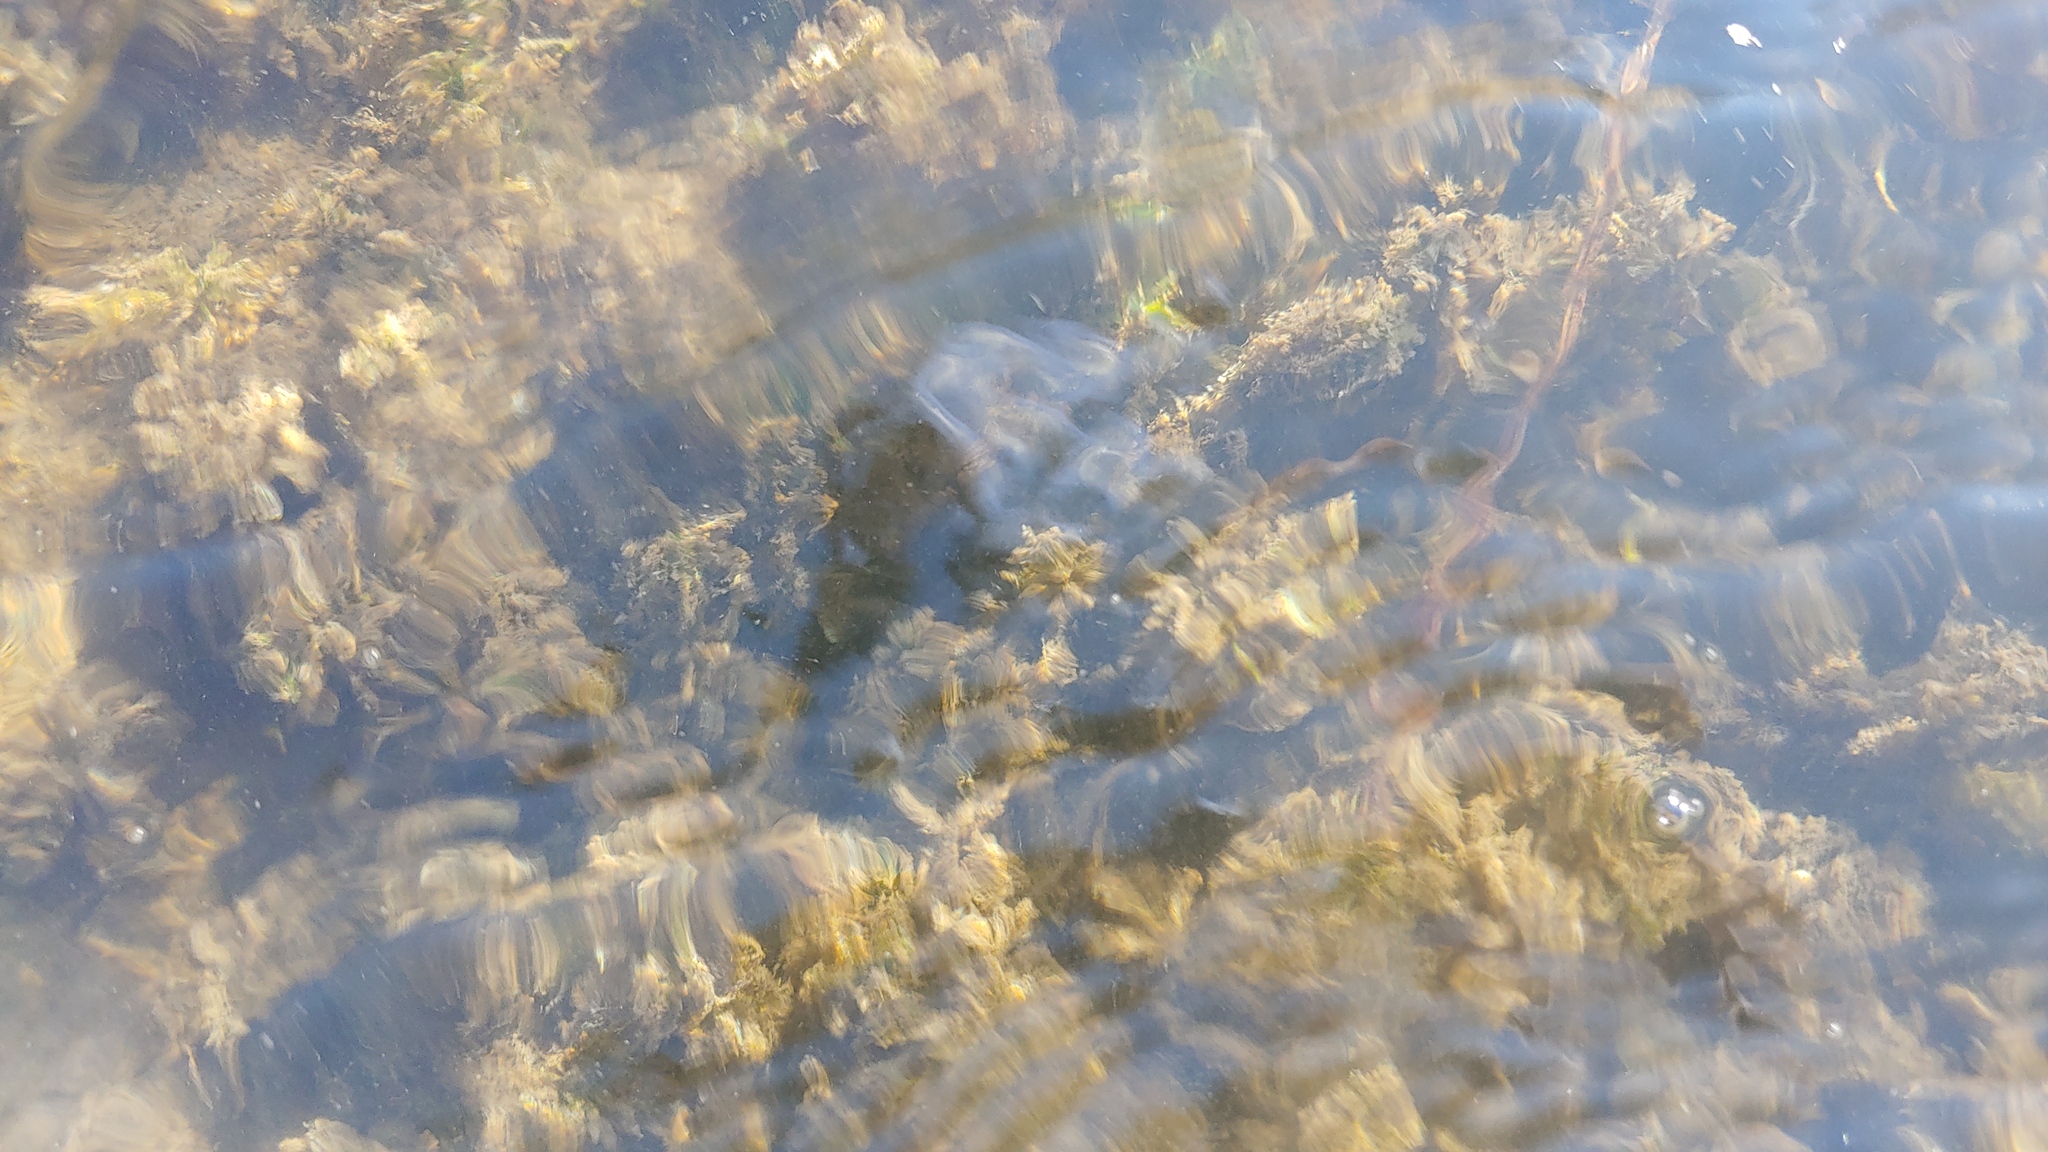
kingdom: Plantae
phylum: Tracheophyta
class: Liliopsida
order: Alismatales
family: Hydrocharitaceae
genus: Elodea
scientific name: Elodea nuttallii
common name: Nuttall's waterweed
